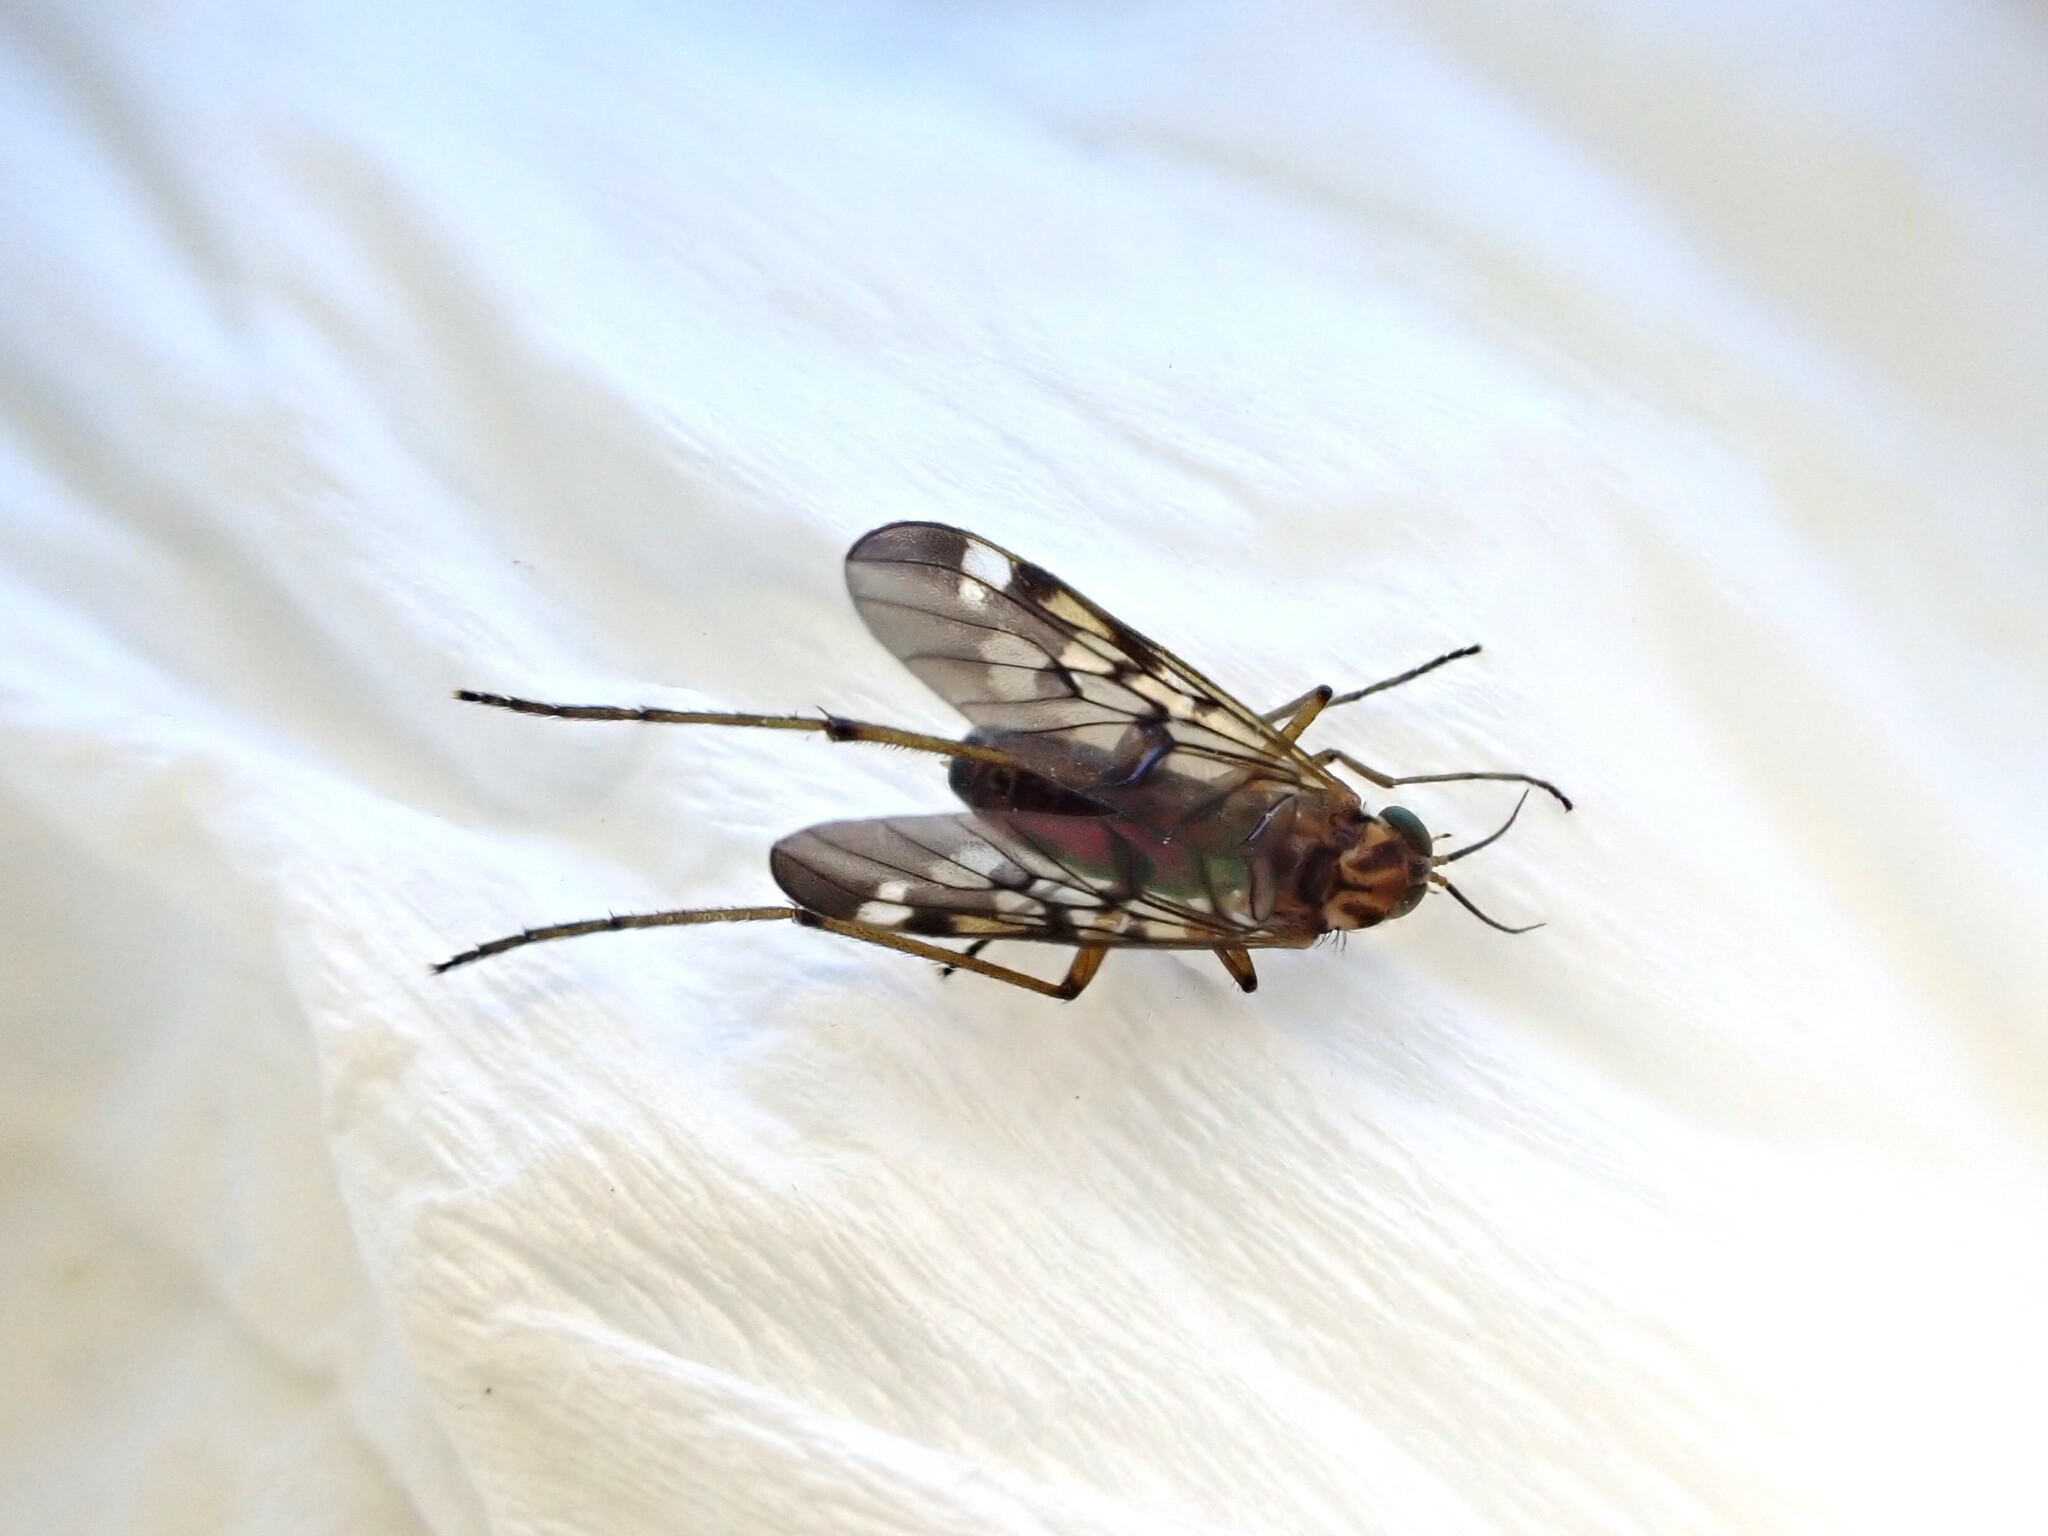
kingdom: Animalia
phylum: Arthropoda
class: Insecta
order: Diptera
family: Anisopodidae
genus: Sylvicola
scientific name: Sylvicola notatus
